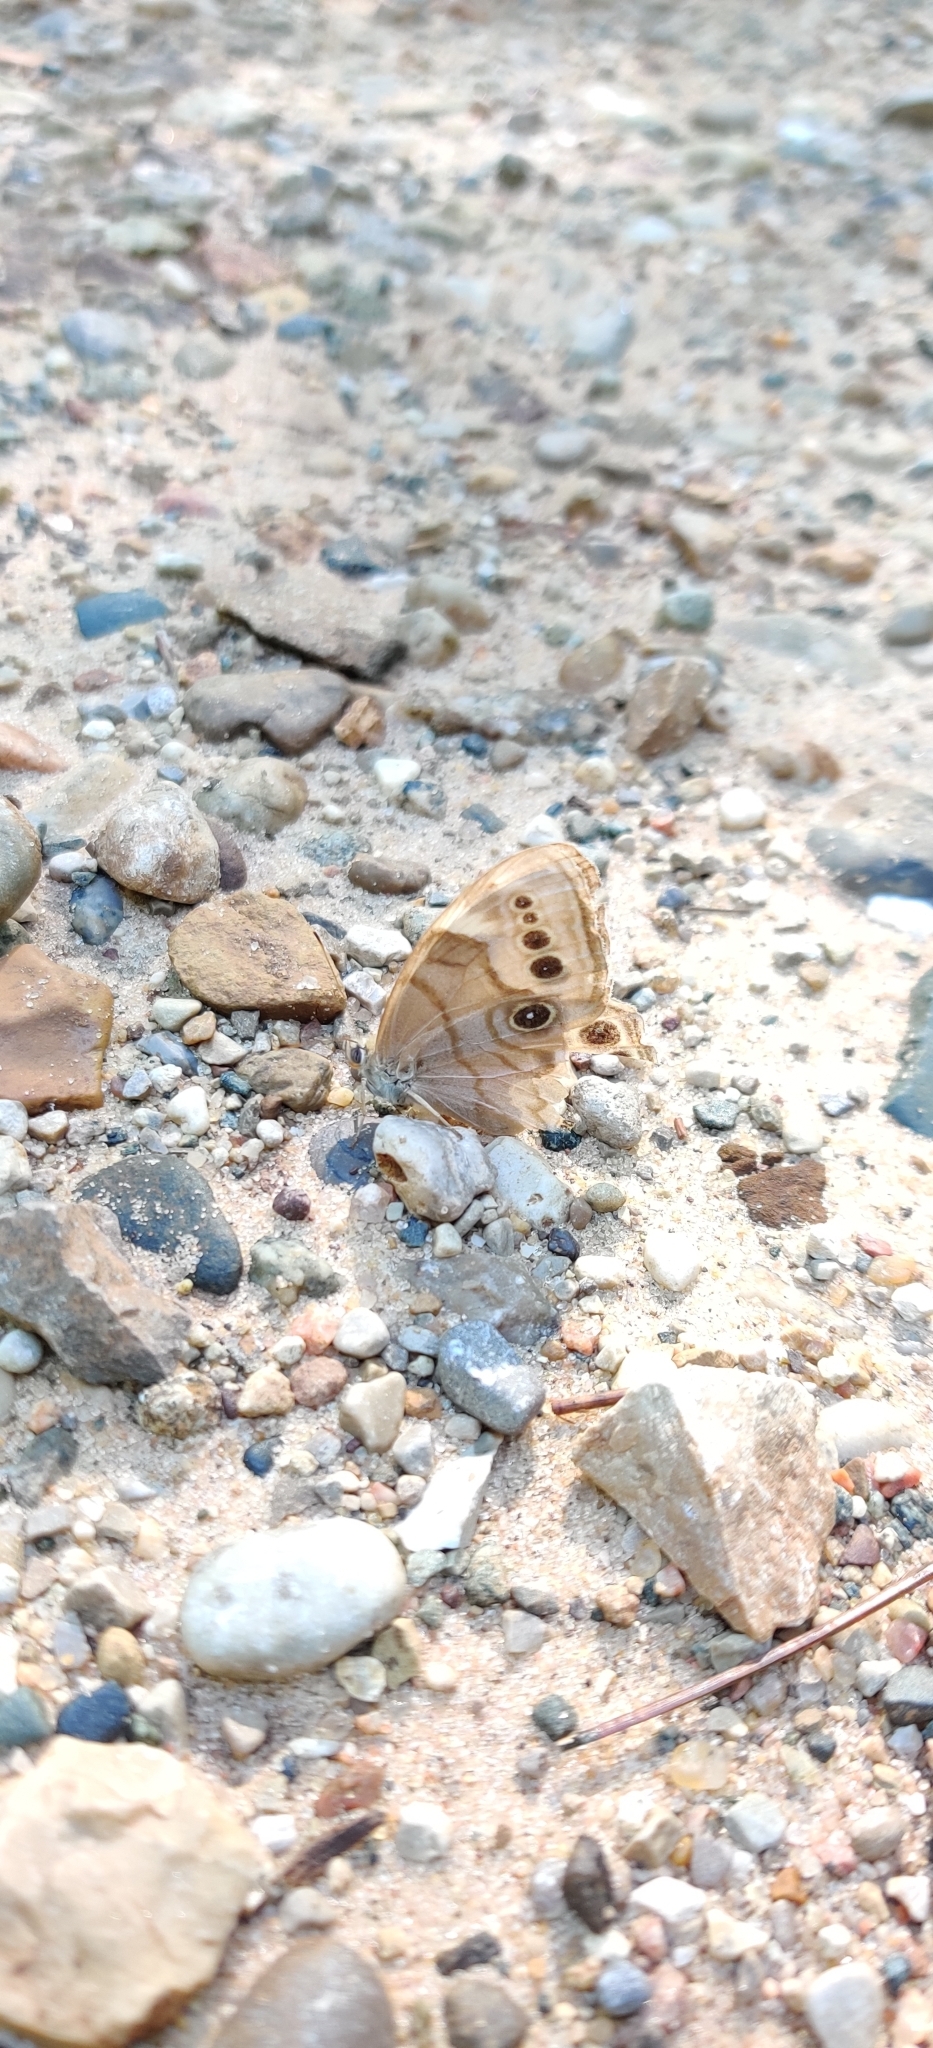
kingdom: Animalia
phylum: Arthropoda
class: Insecta
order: Lepidoptera
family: Nymphalidae
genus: Lethe
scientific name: Lethe anthedon
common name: Northern pearly-eye
